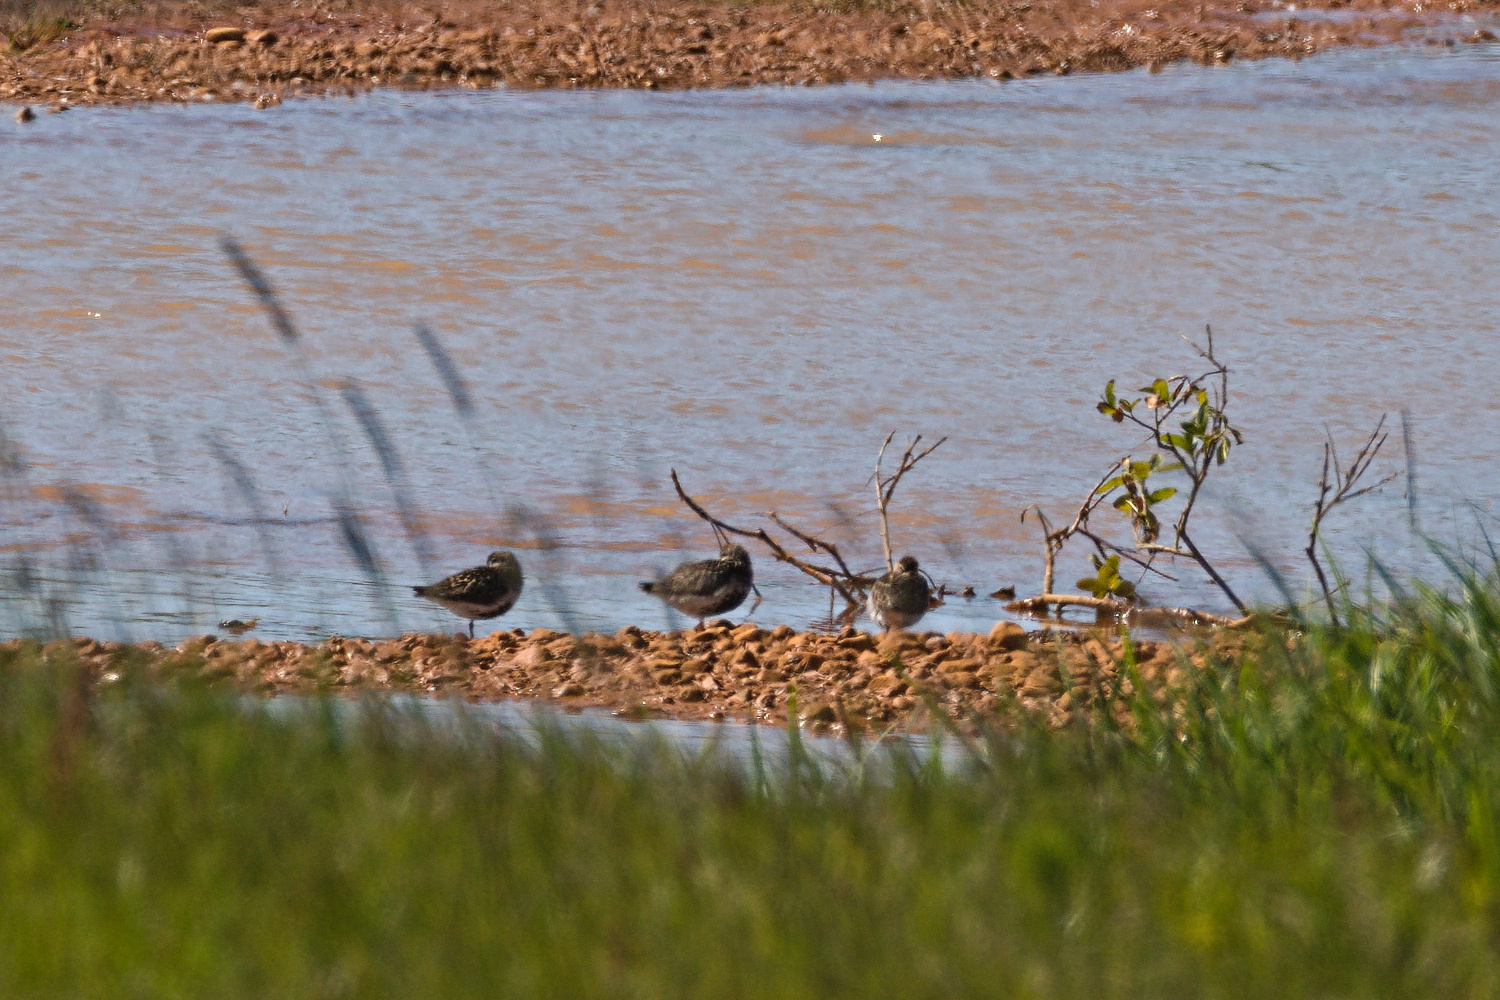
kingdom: Animalia
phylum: Chordata
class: Aves
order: Charadriiformes
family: Scolopacidae
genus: Tringa
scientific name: Tringa totanus
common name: Common redshank
